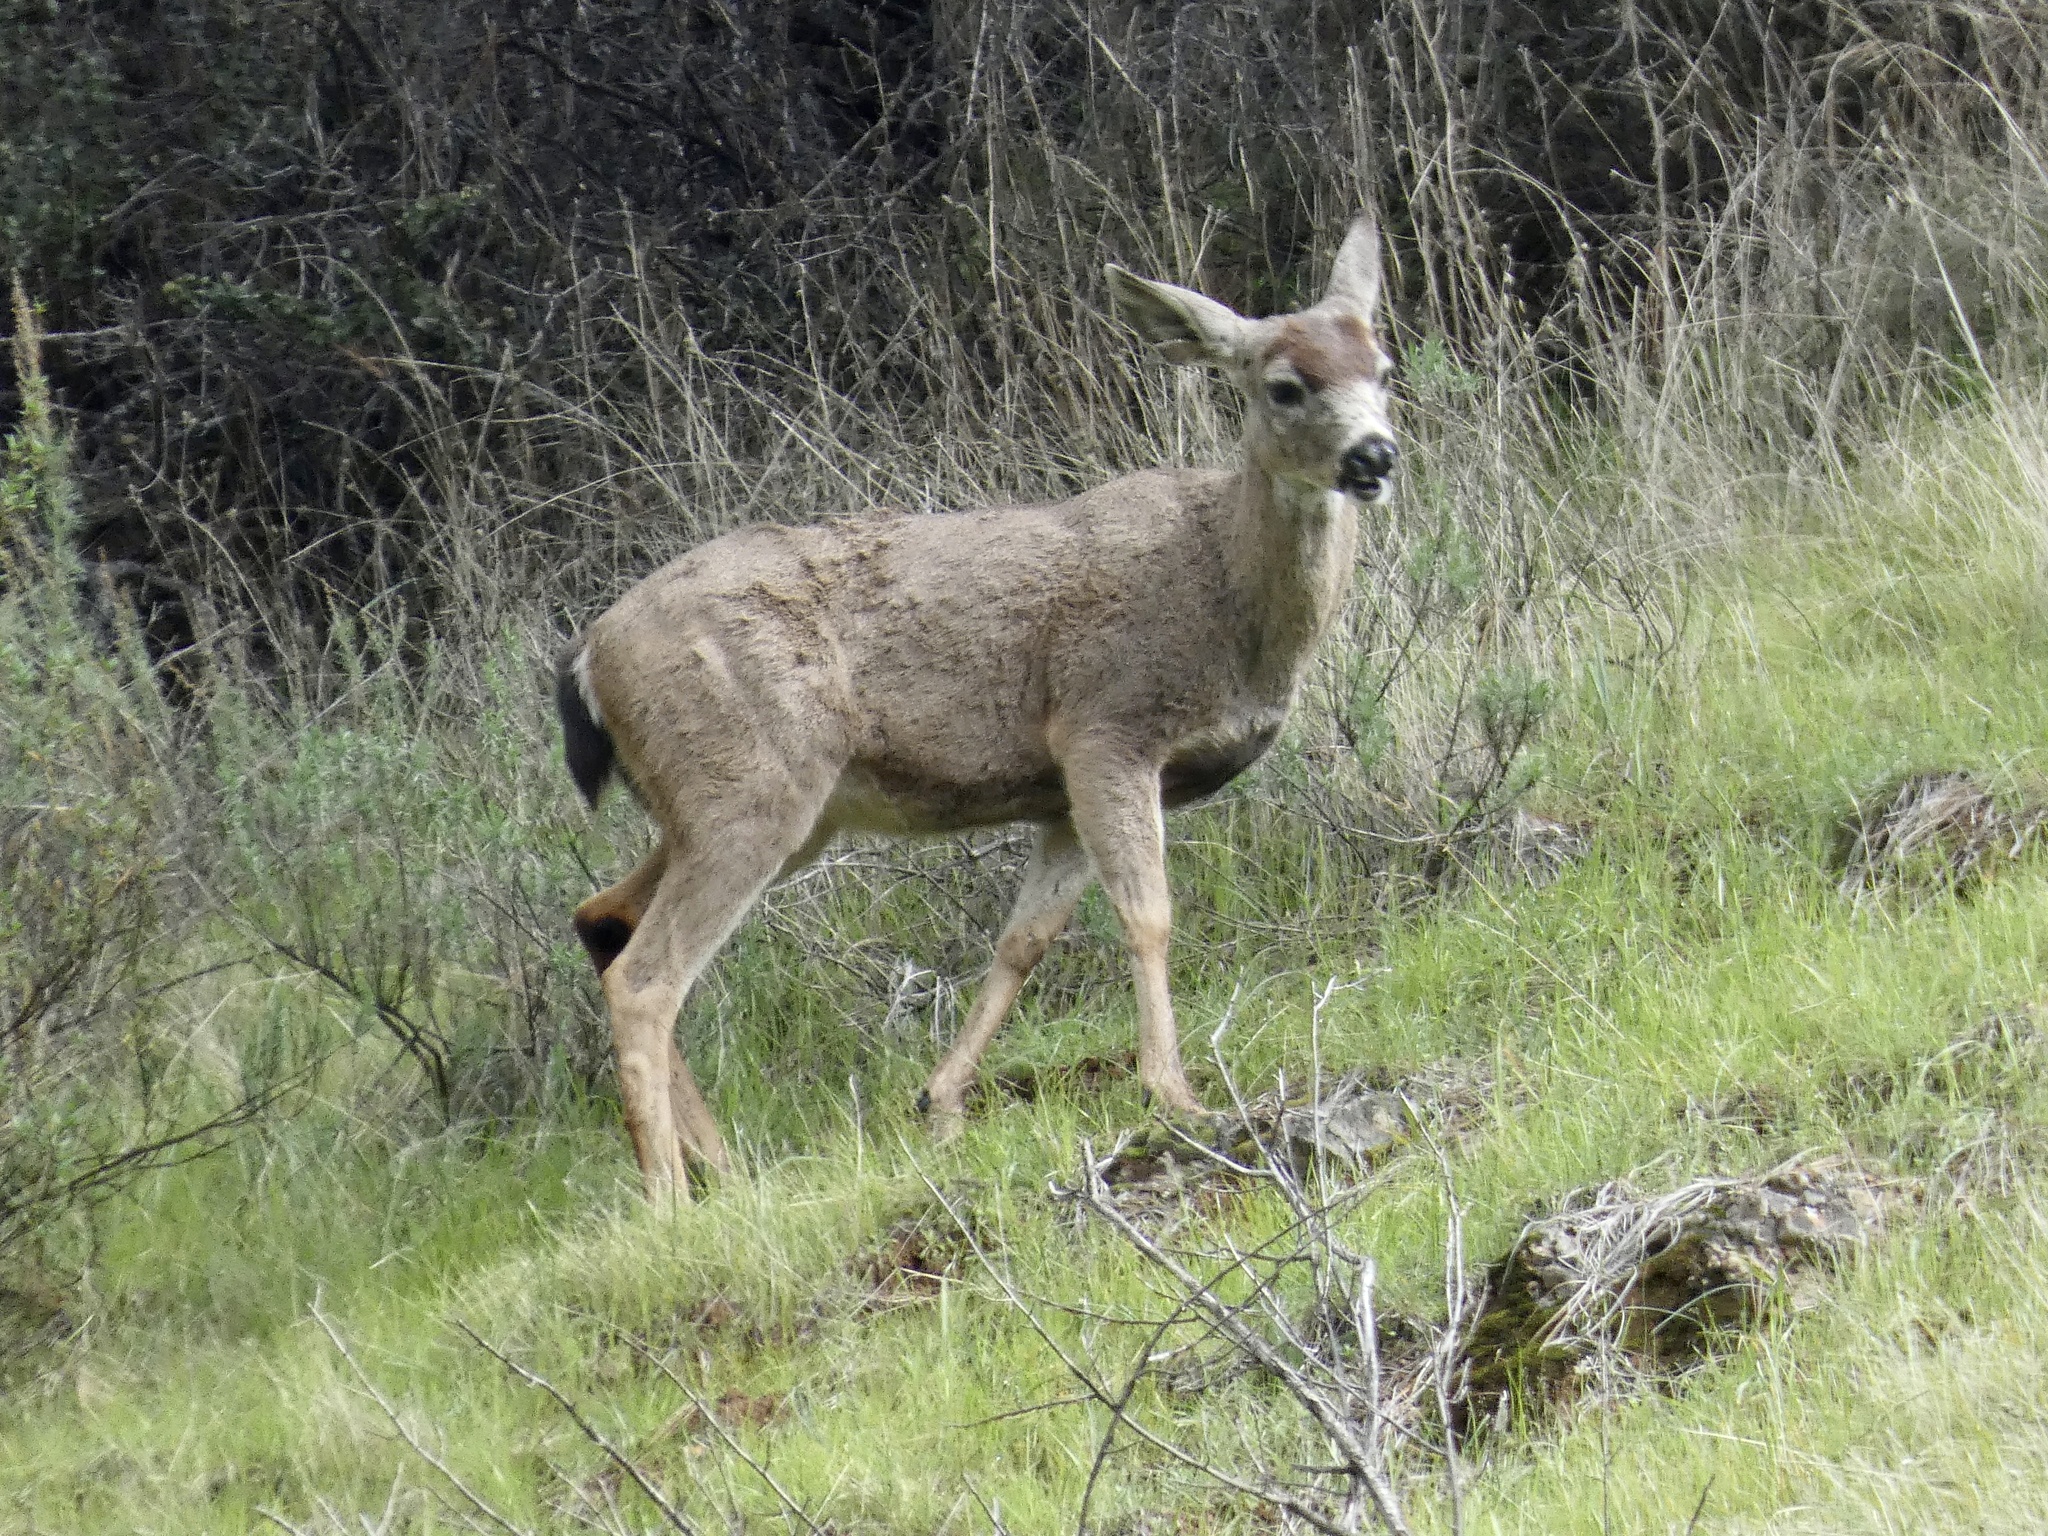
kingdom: Animalia
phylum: Chordata
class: Mammalia
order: Artiodactyla
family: Cervidae
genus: Odocoileus
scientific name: Odocoileus hemionus
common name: Mule deer
